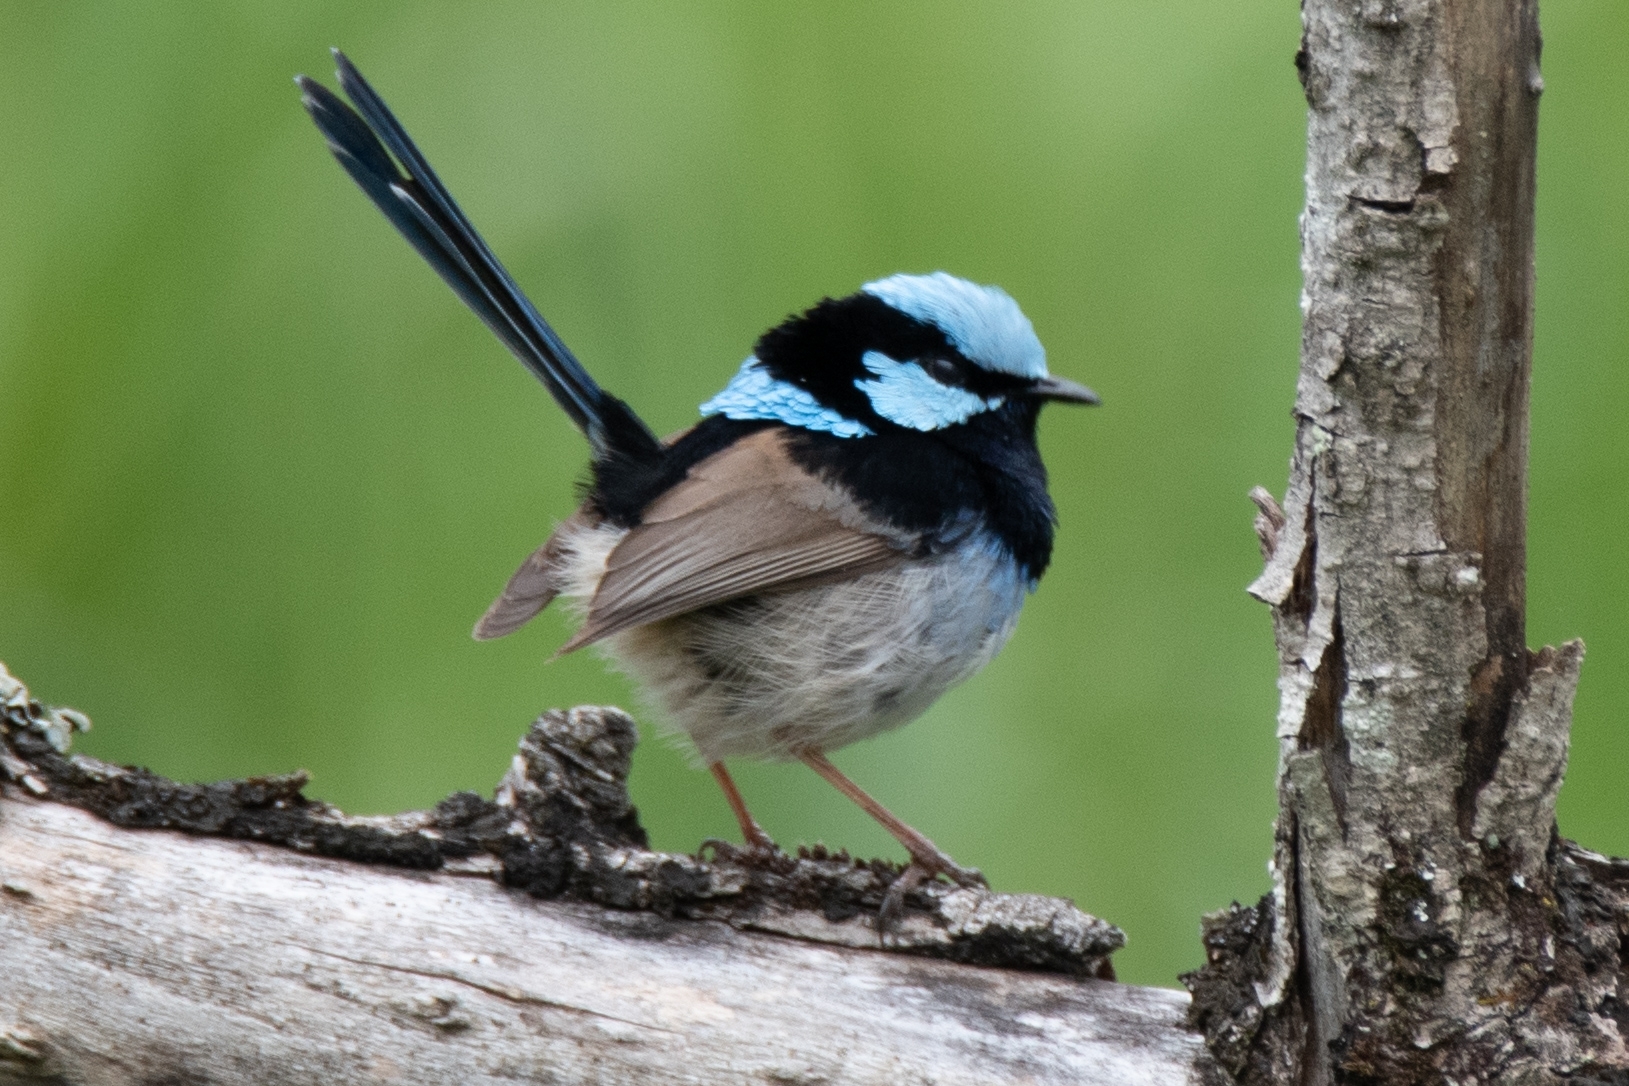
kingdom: Animalia
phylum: Chordata
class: Aves
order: Passeriformes
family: Maluridae
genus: Malurus
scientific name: Malurus cyaneus
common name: Superb fairywren
